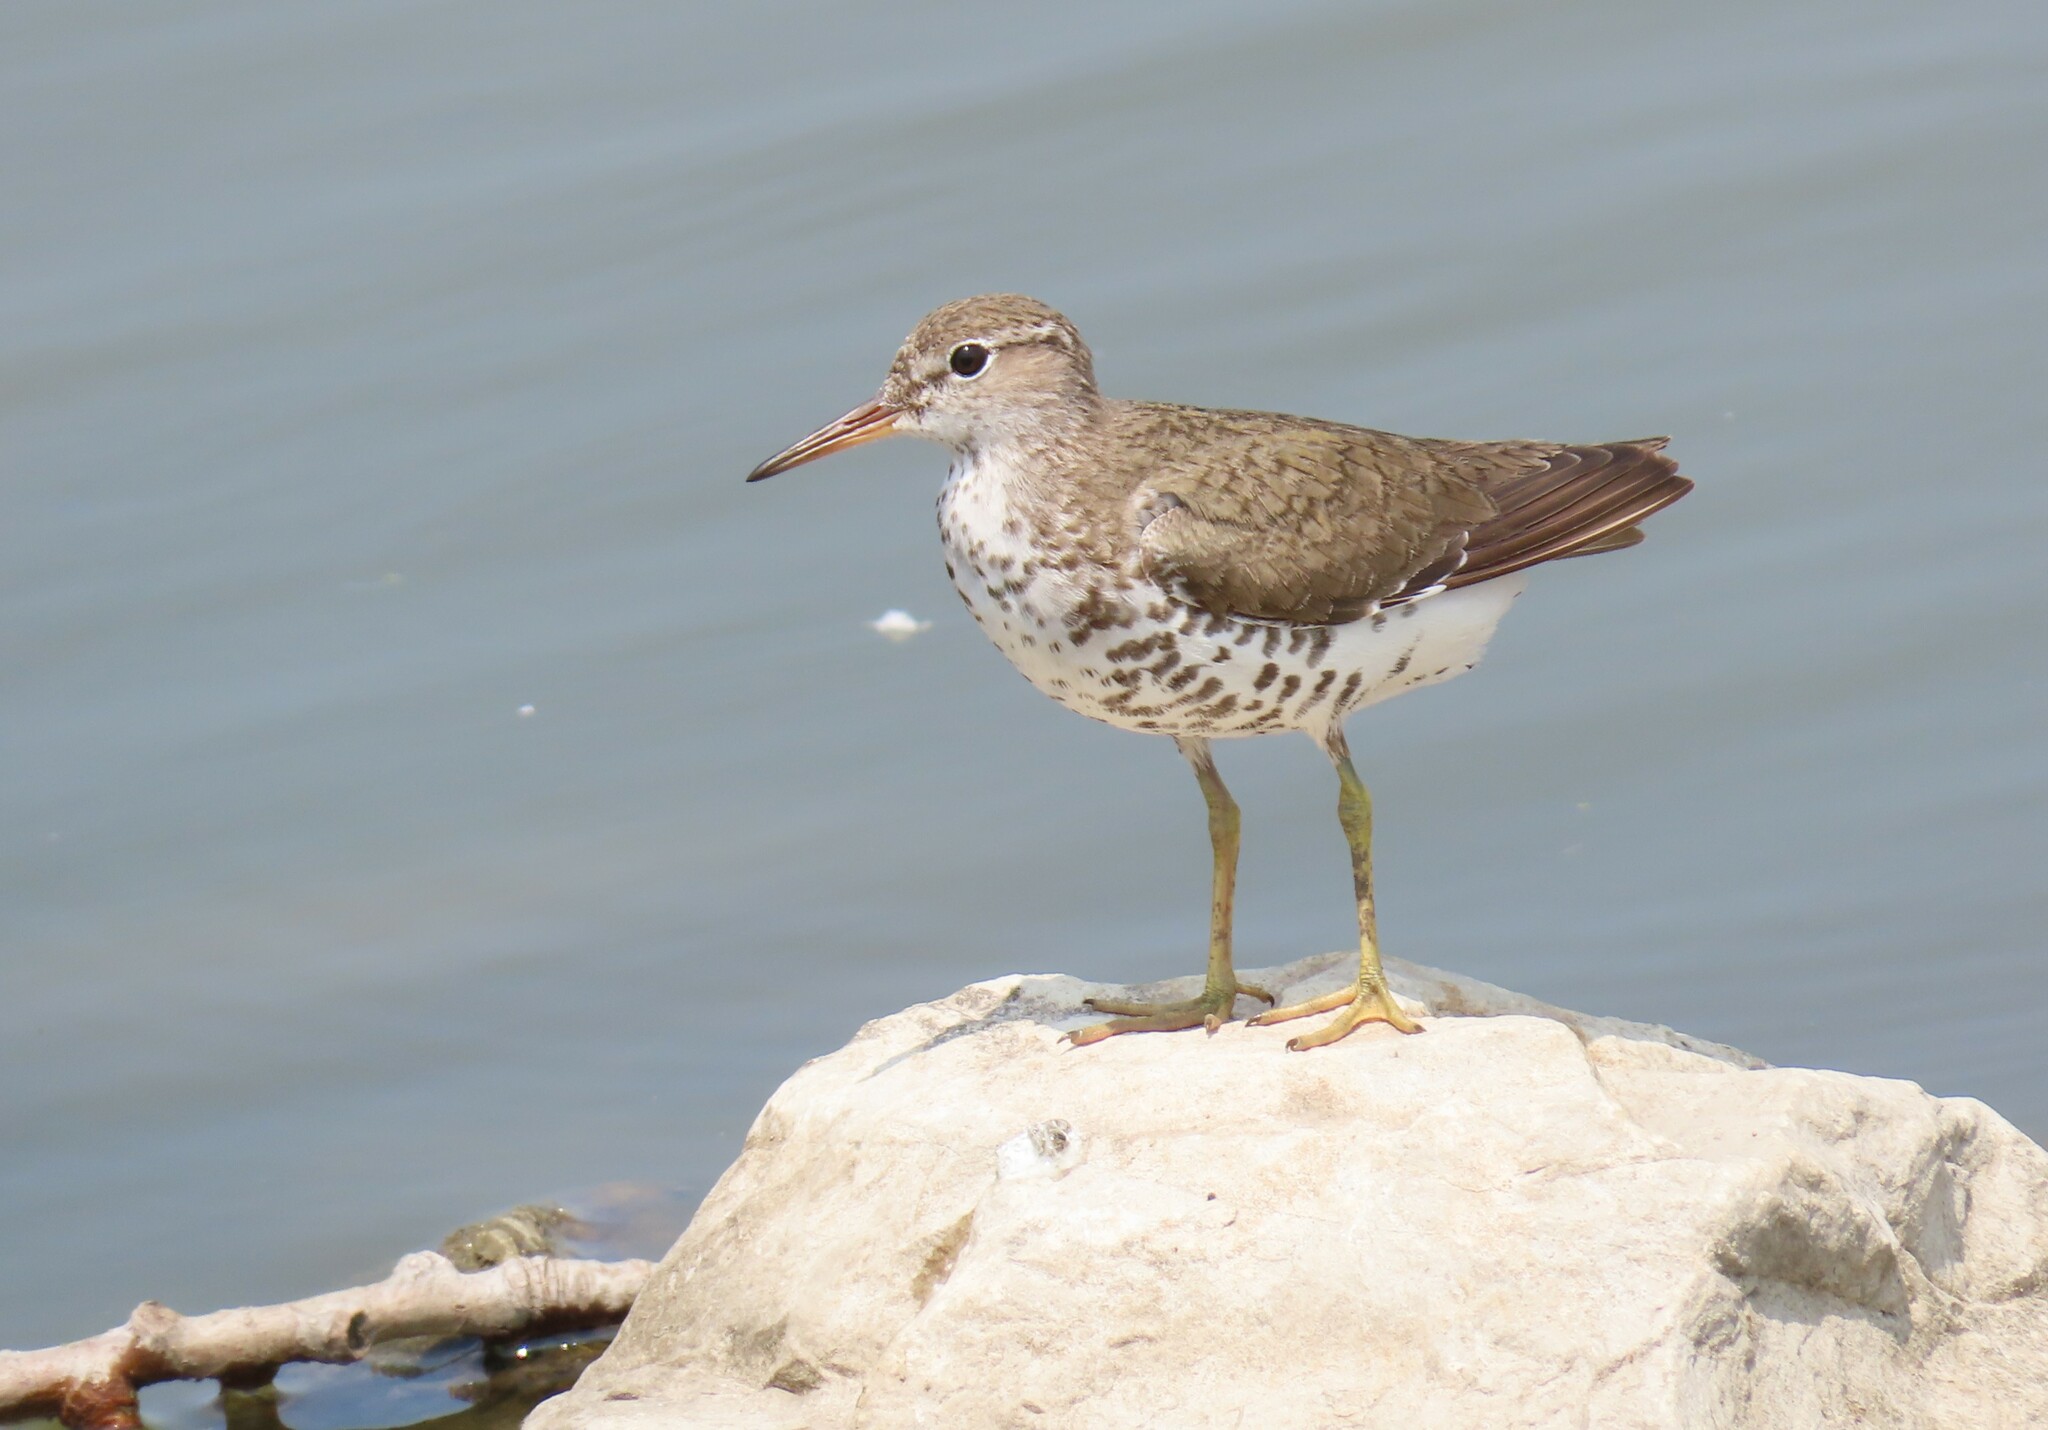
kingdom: Animalia
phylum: Chordata
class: Aves
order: Charadriiformes
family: Scolopacidae
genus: Actitis
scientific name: Actitis macularius
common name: Spotted sandpiper
